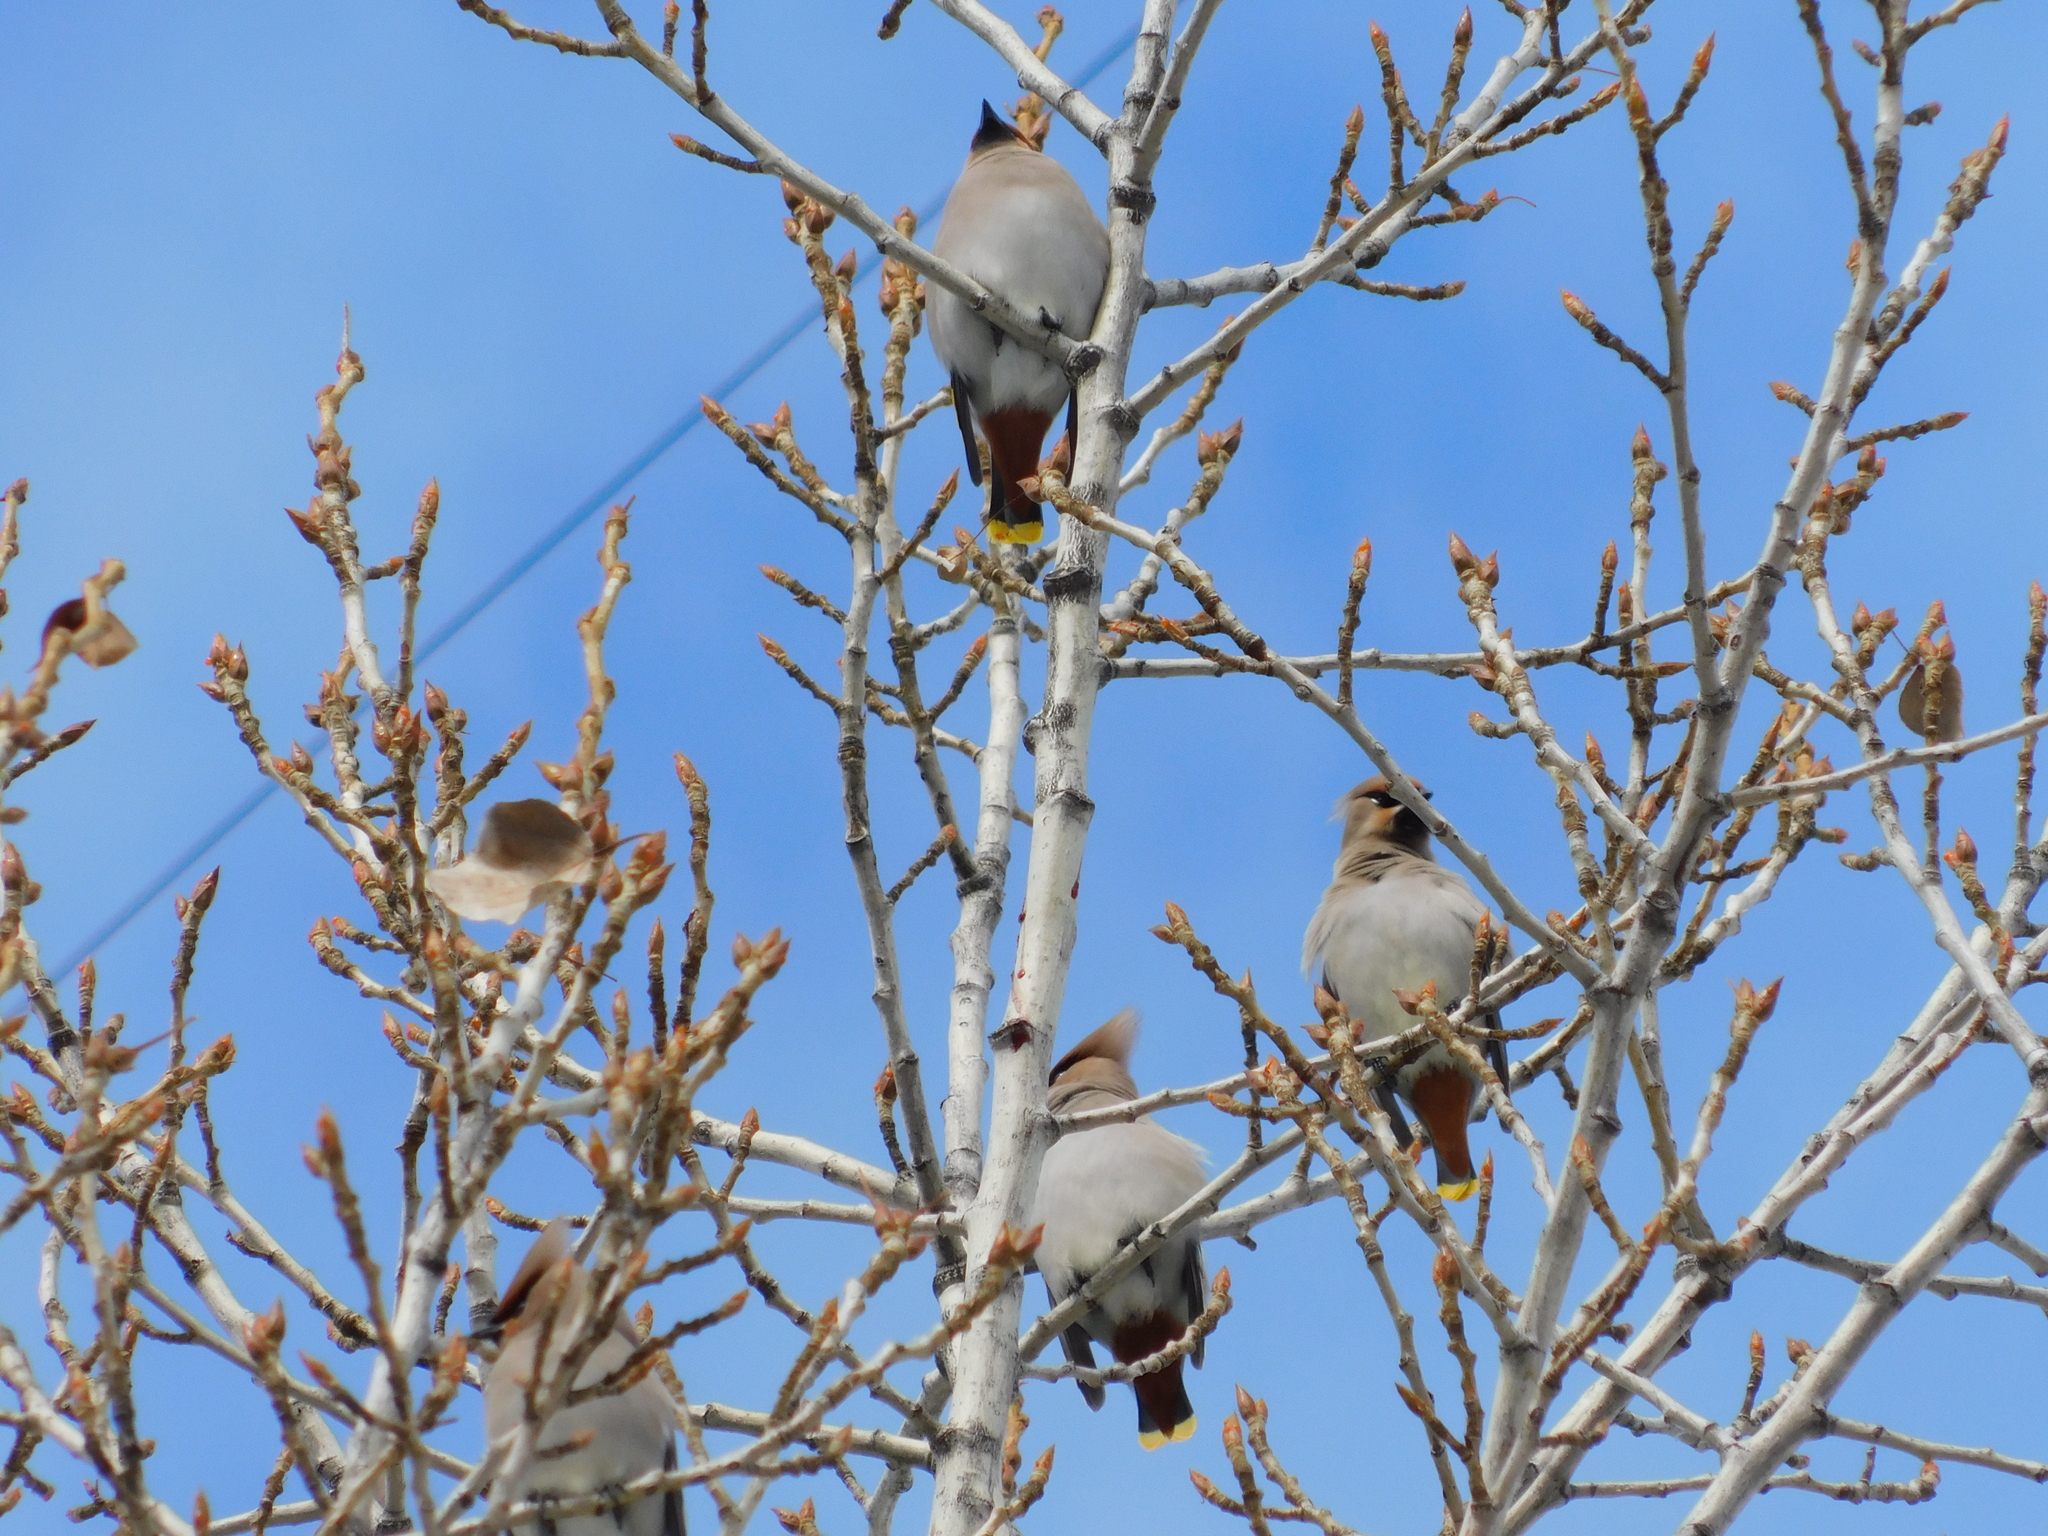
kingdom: Animalia
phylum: Chordata
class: Aves
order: Passeriformes
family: Bombycillidae
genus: Bombycilla
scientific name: Bombycilla garrulus
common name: Bohemian waxwing
